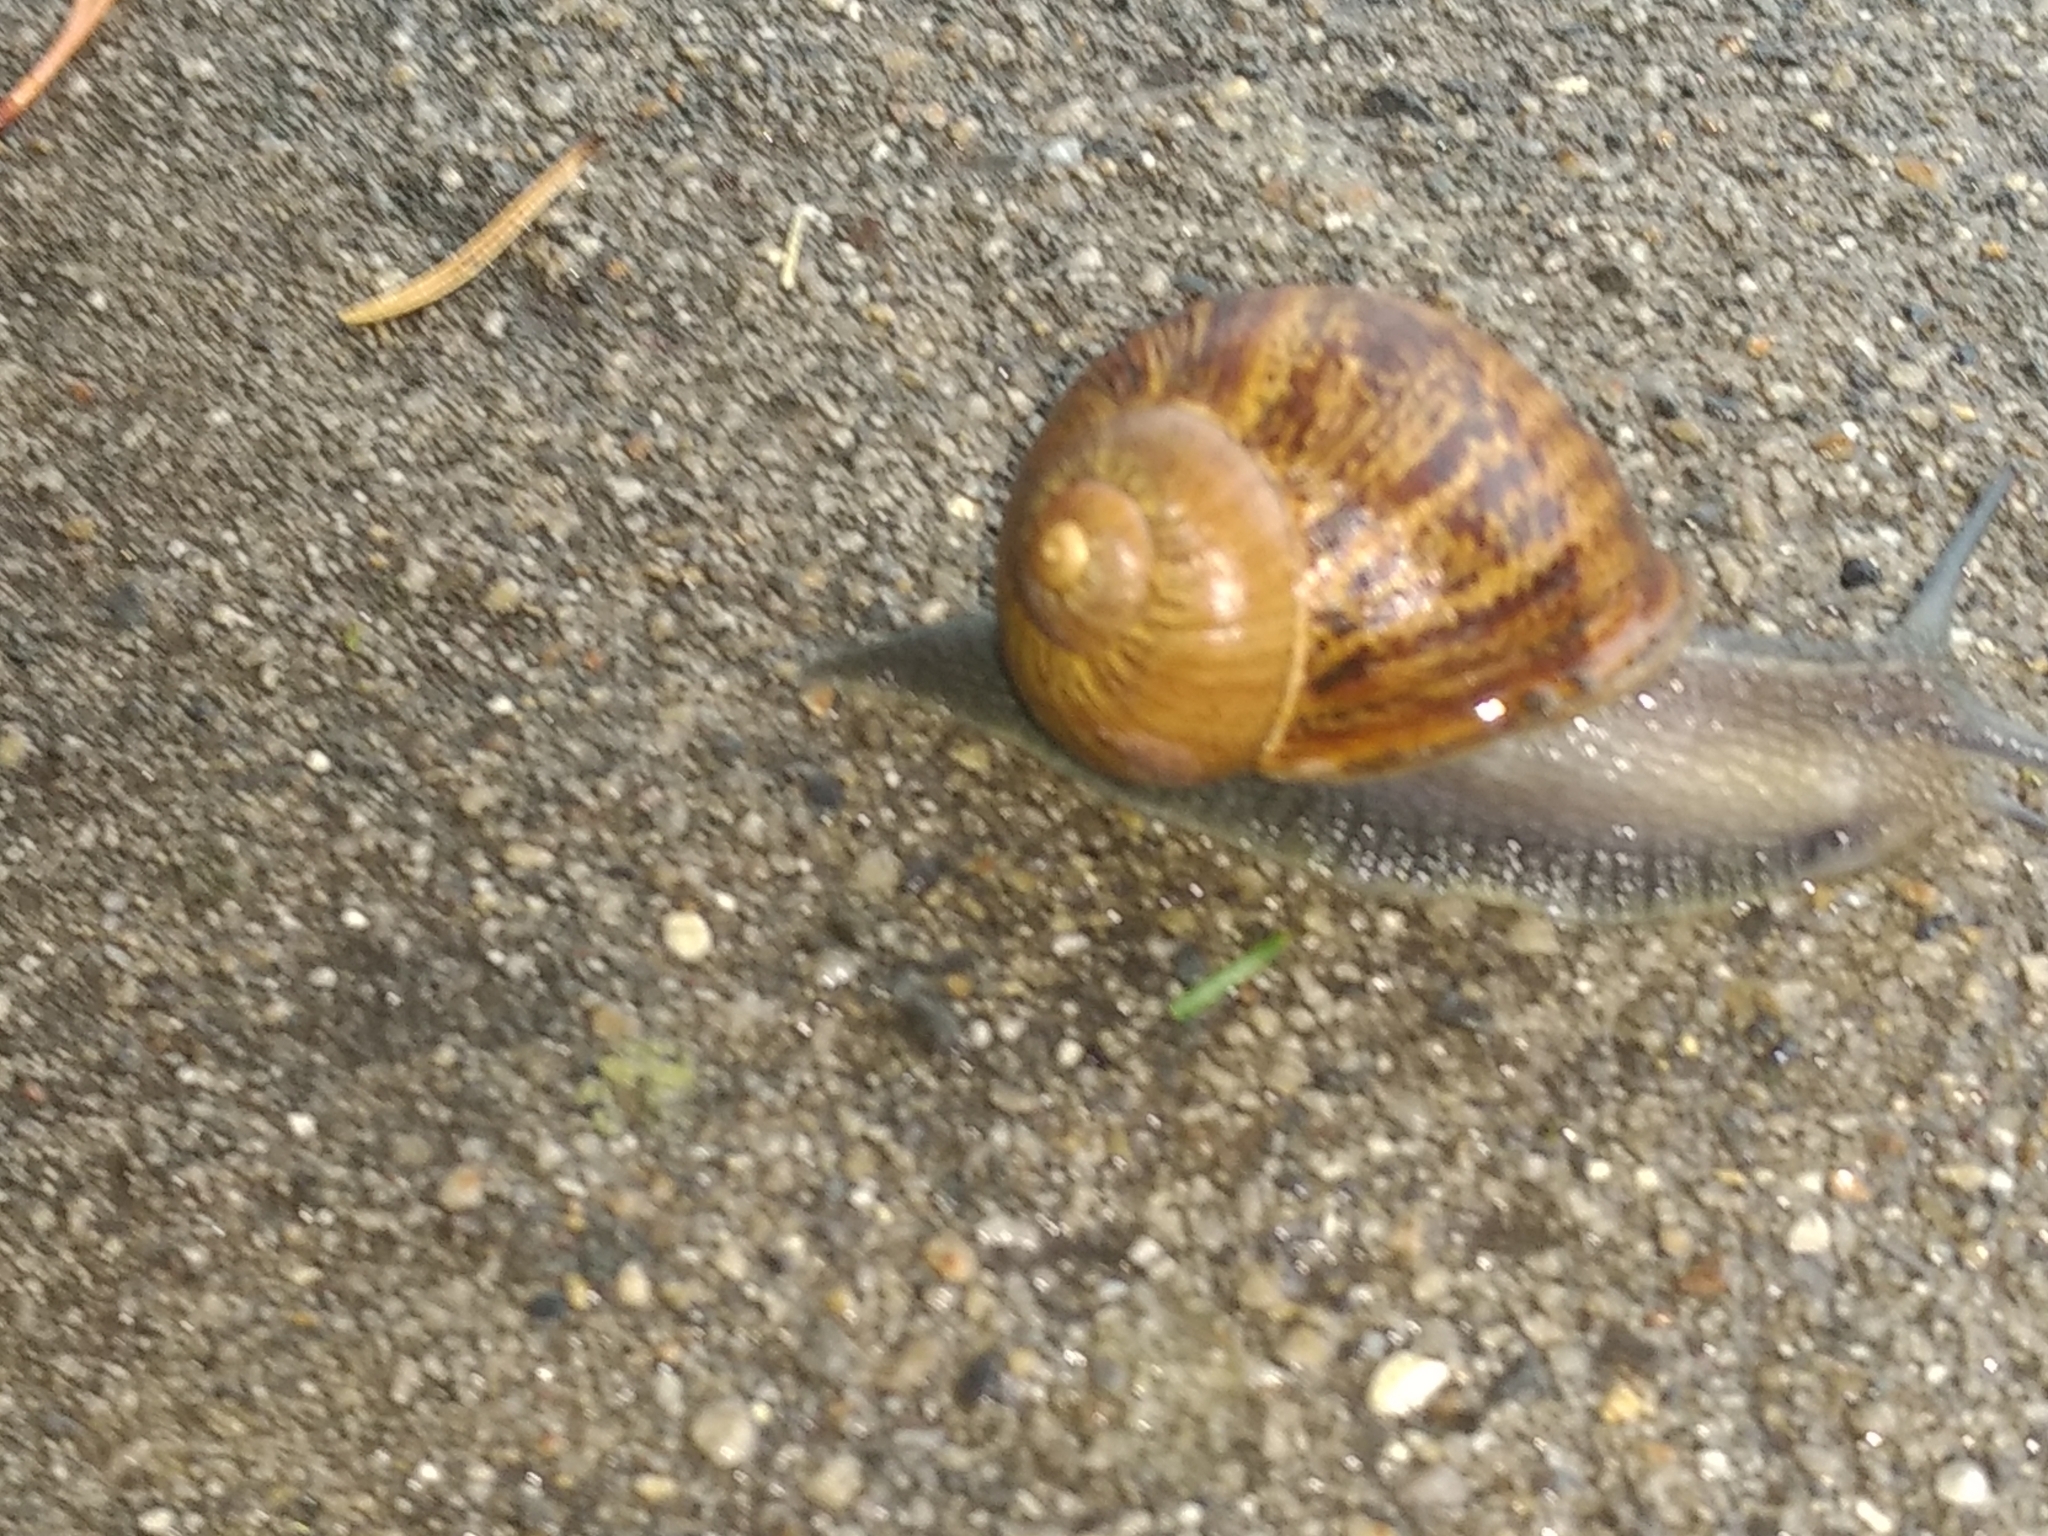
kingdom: Animalia
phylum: Mollusca
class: Gastropoda
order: Stylommatophora
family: Helicidae
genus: Cornu
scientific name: Cornu aspersum
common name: Brown garden snail
